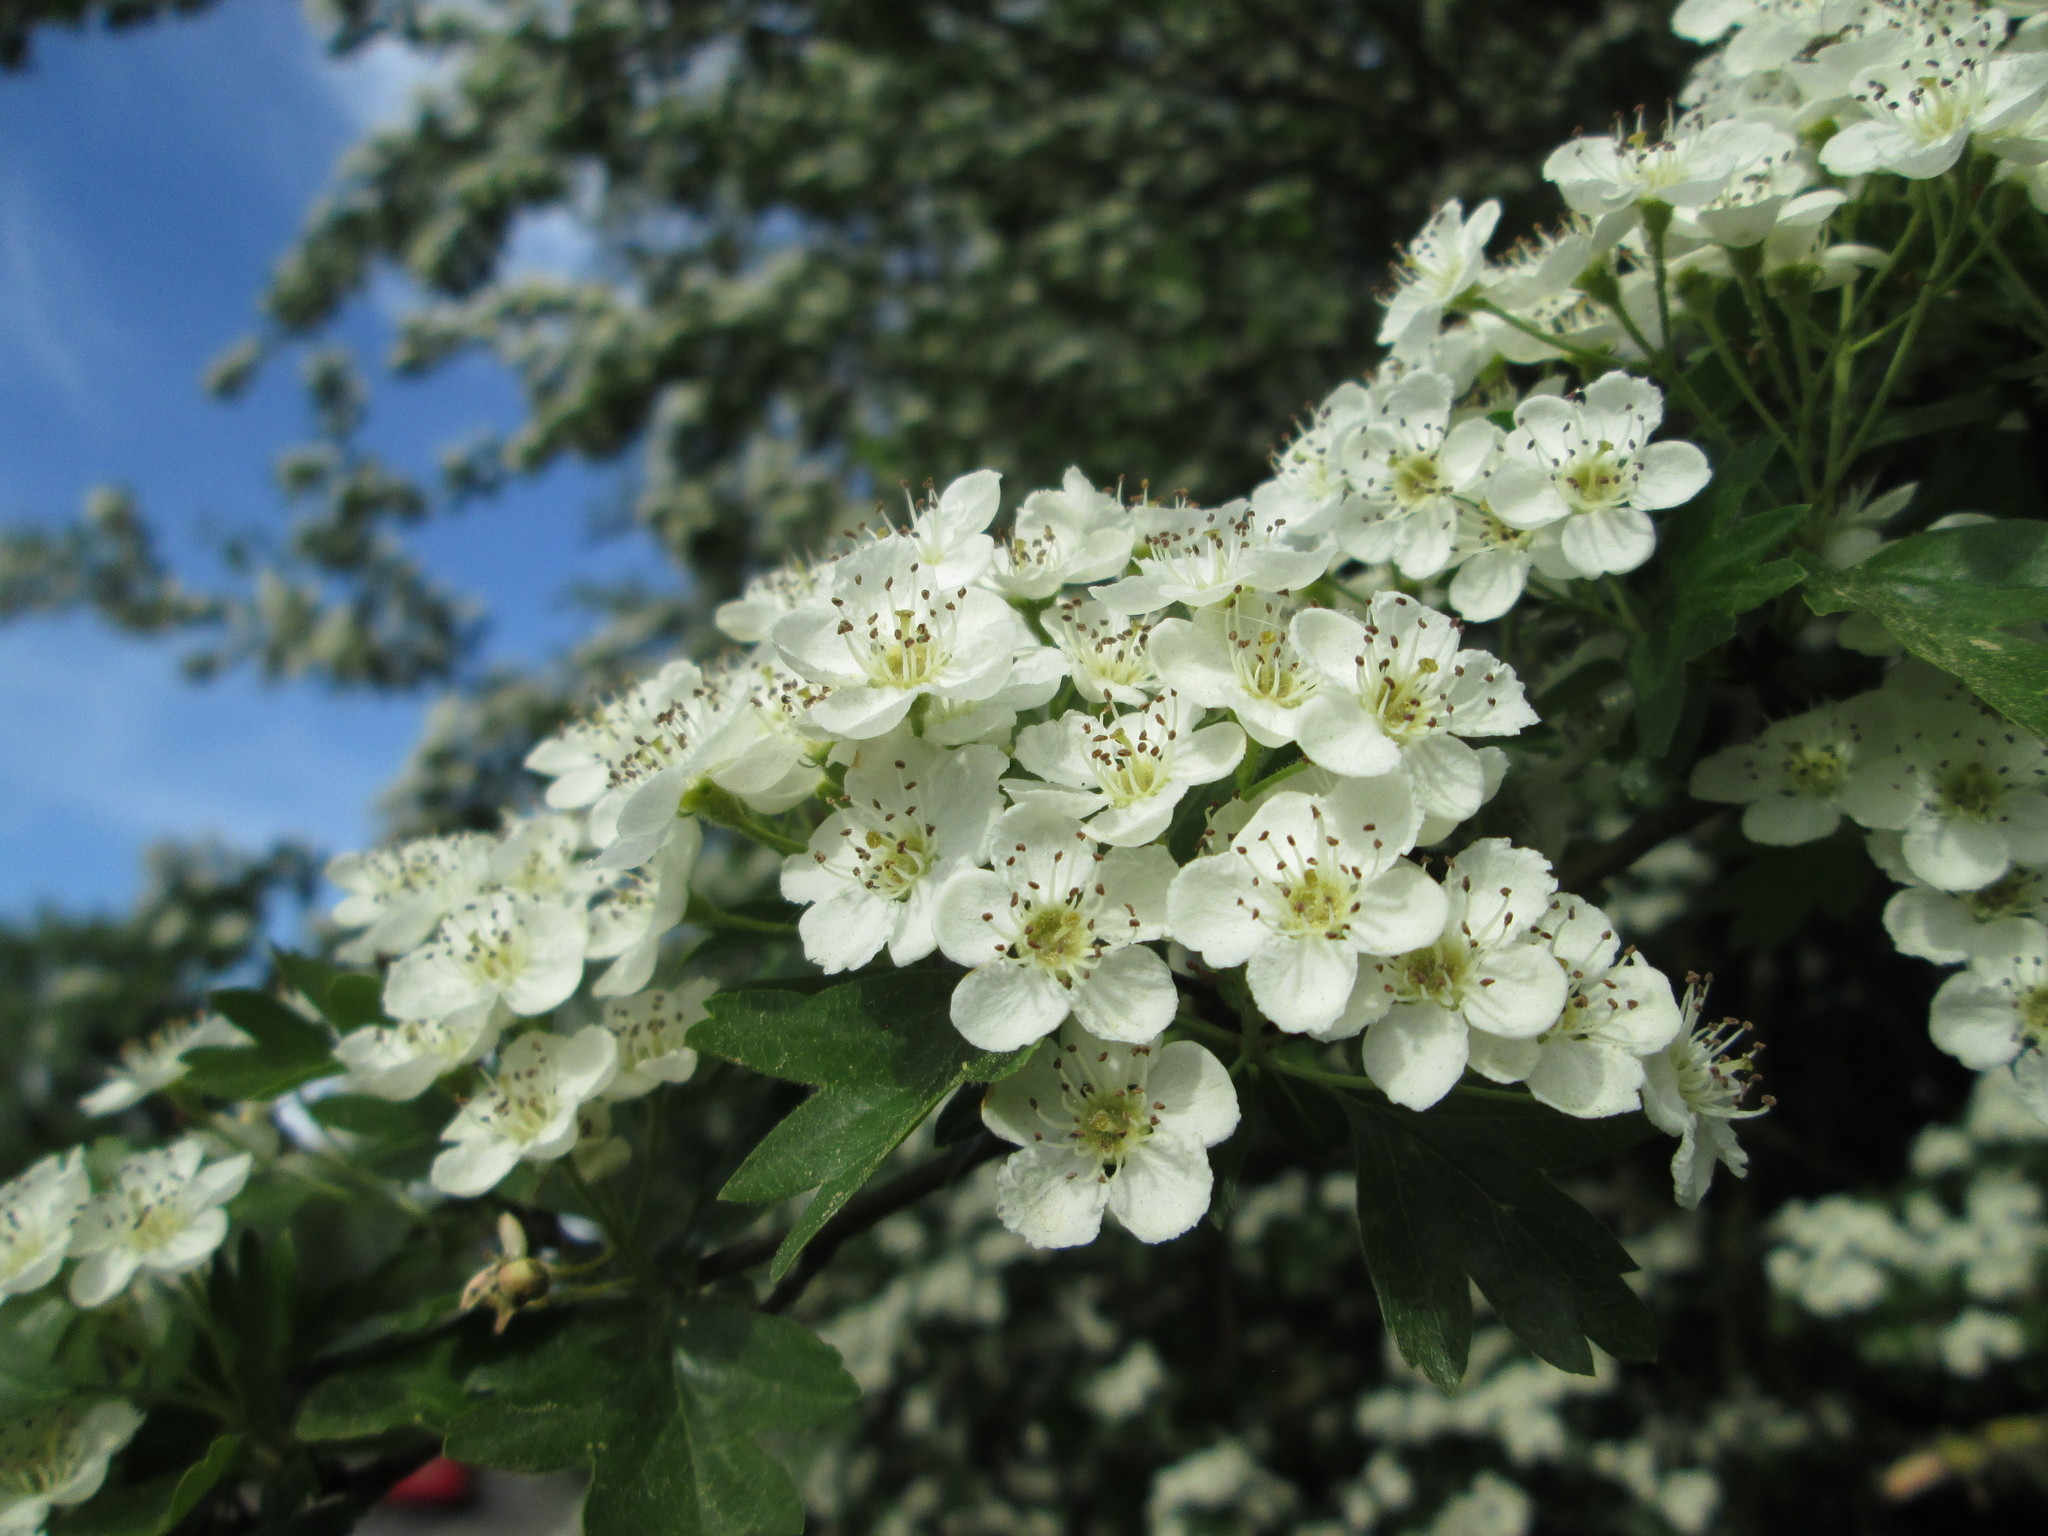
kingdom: Plantae
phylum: Tracheophyta
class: Magnoliopsida
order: Rosales
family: Rosaceae
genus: Crataegus
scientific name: Crataegus monogyna
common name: Hawthorn
